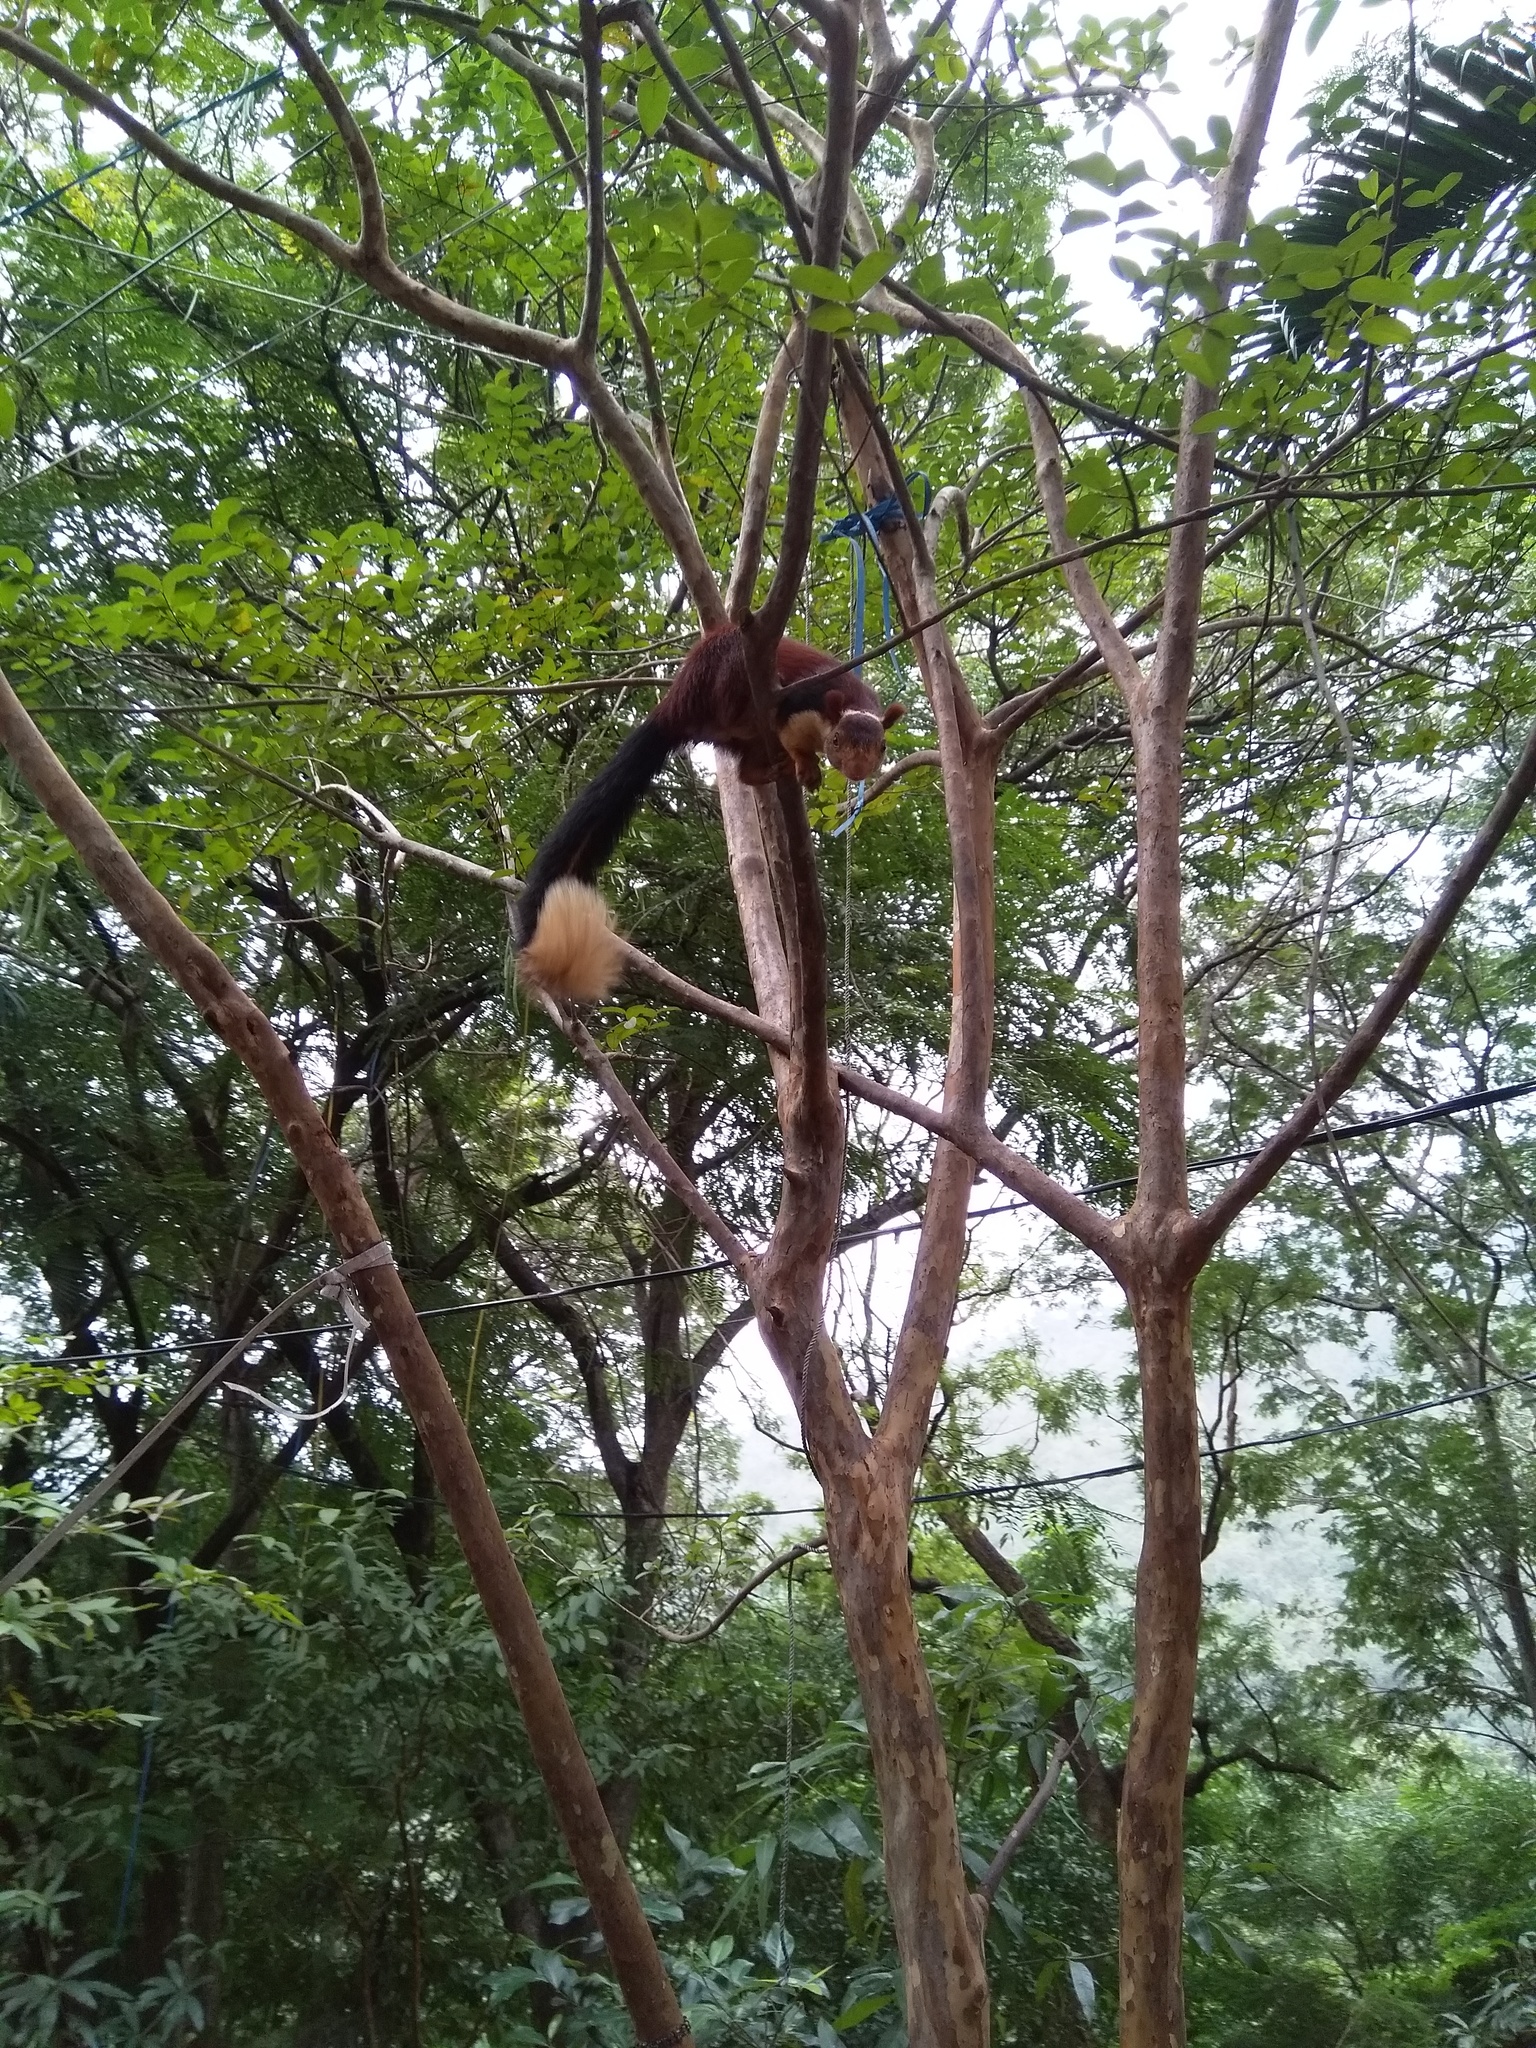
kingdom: Animalia
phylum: Chordata
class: Mammalia
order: Rodentia
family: Sciuridae
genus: Ratufa
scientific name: Ratufa indica
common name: Indian giant squirrel
